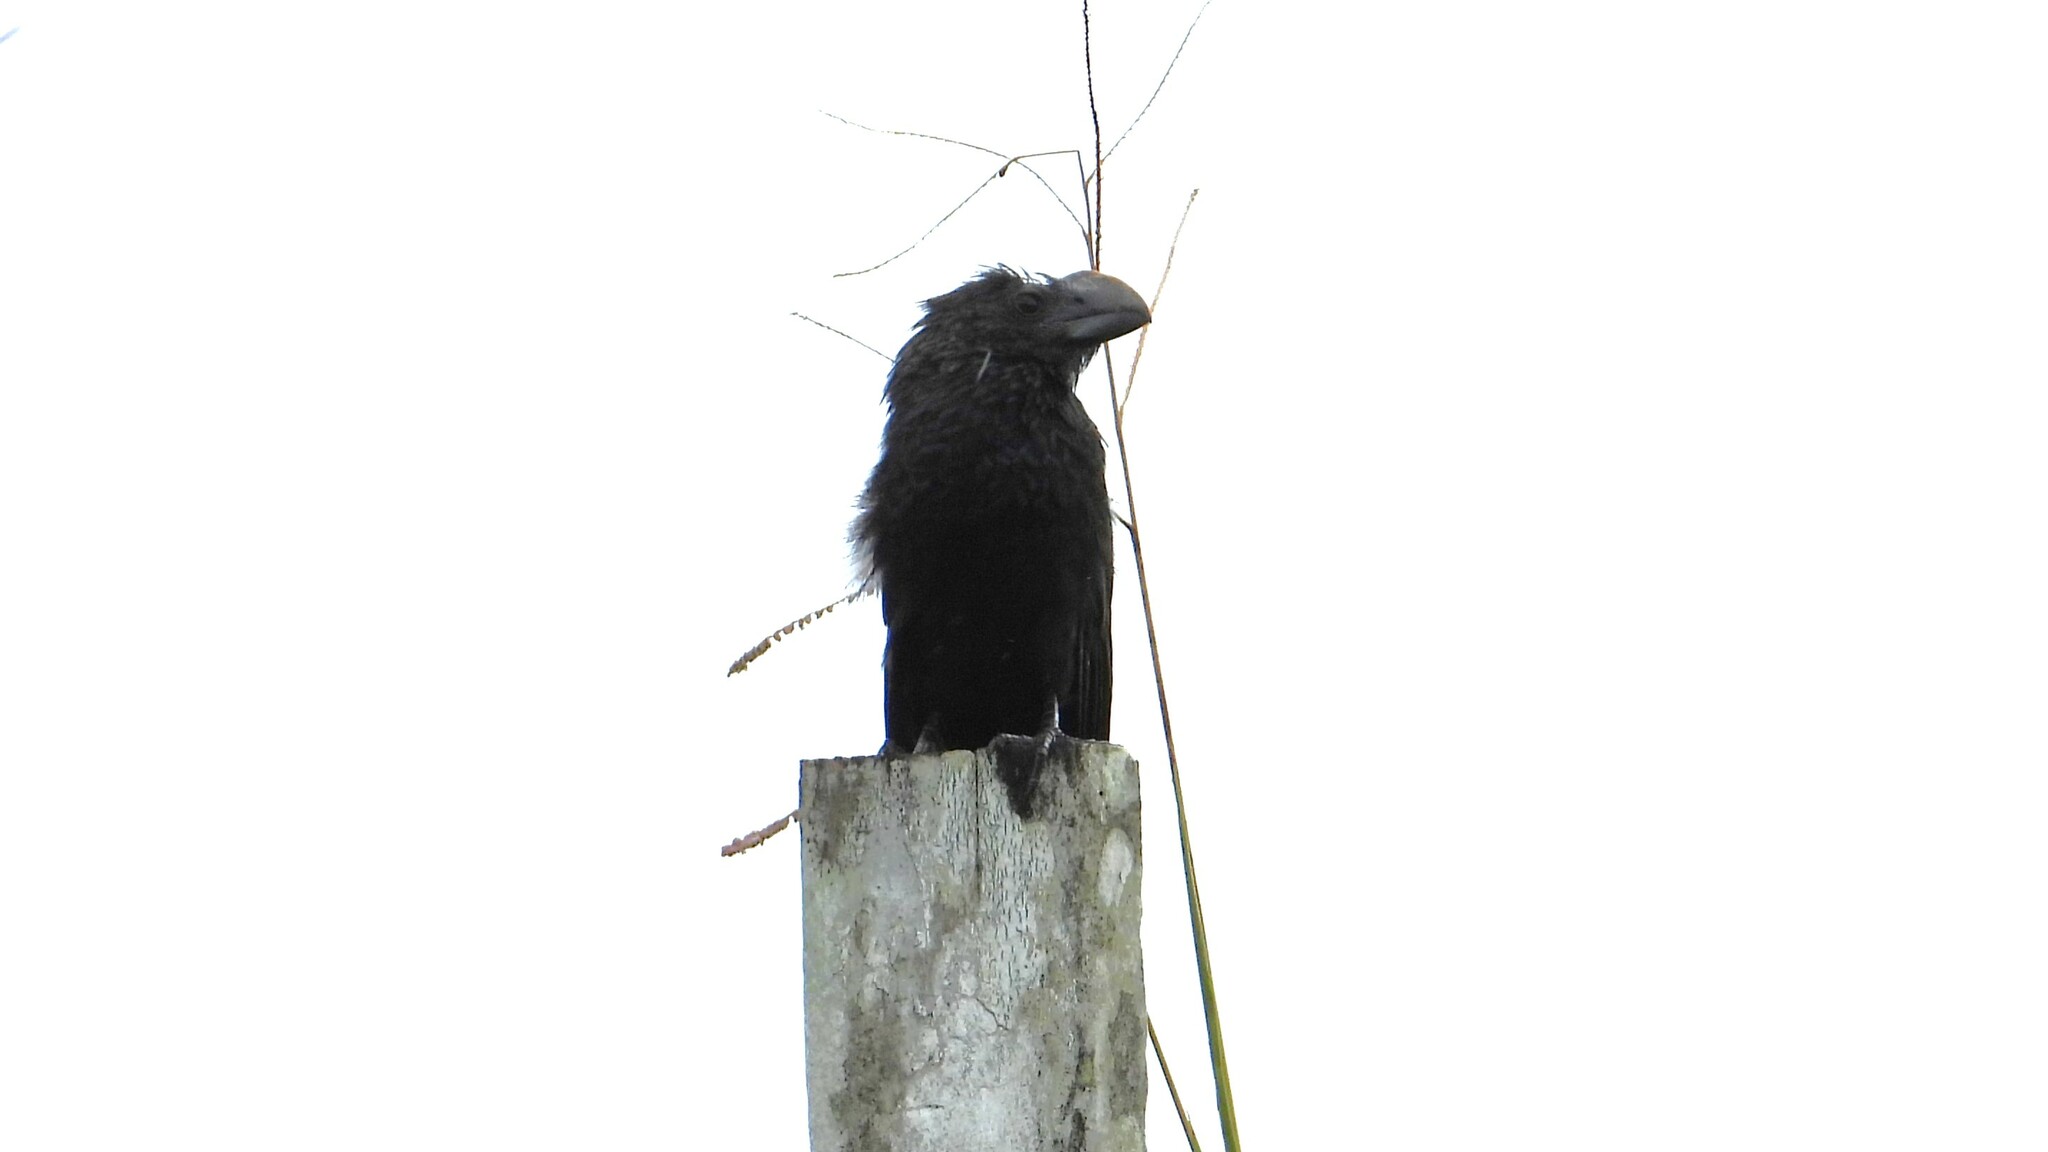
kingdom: Animalia
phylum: Chordata
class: Aves
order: Cuculiformes
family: Cuculidae
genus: Crotophaga
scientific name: Crotophaga ani
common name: Smooth-billed ani
